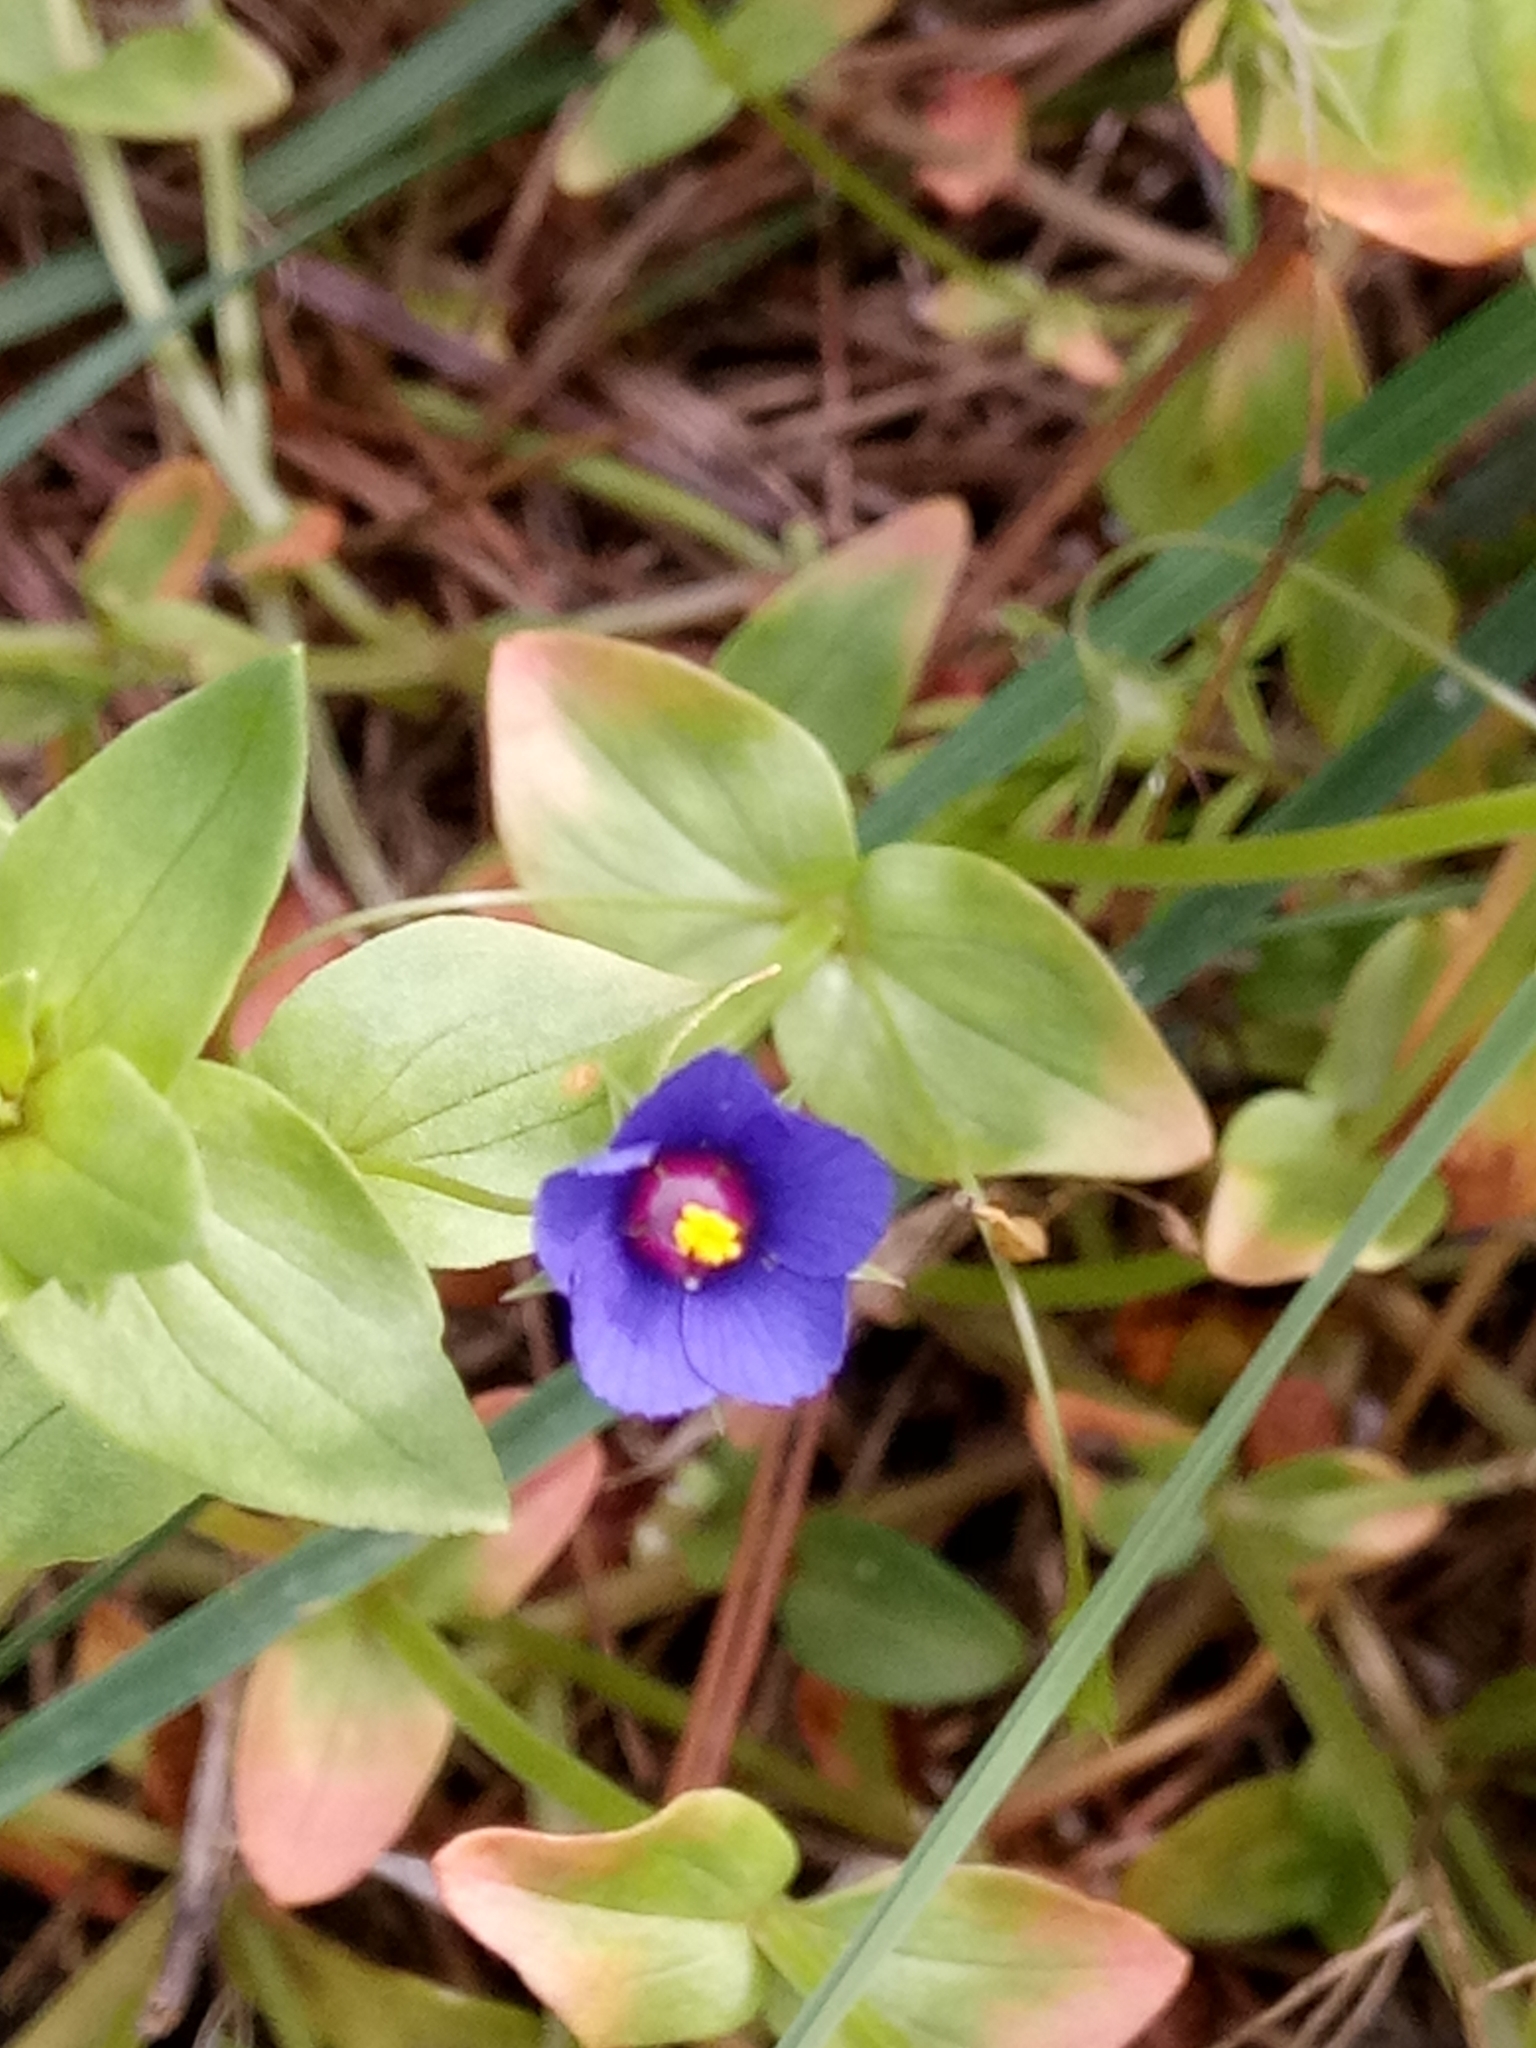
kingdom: Plantae
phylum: Tracheophyta
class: Magnoliopsida
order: Ericales
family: Primulaceae
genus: Lysimachia
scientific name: Lysimachia loeflingii
